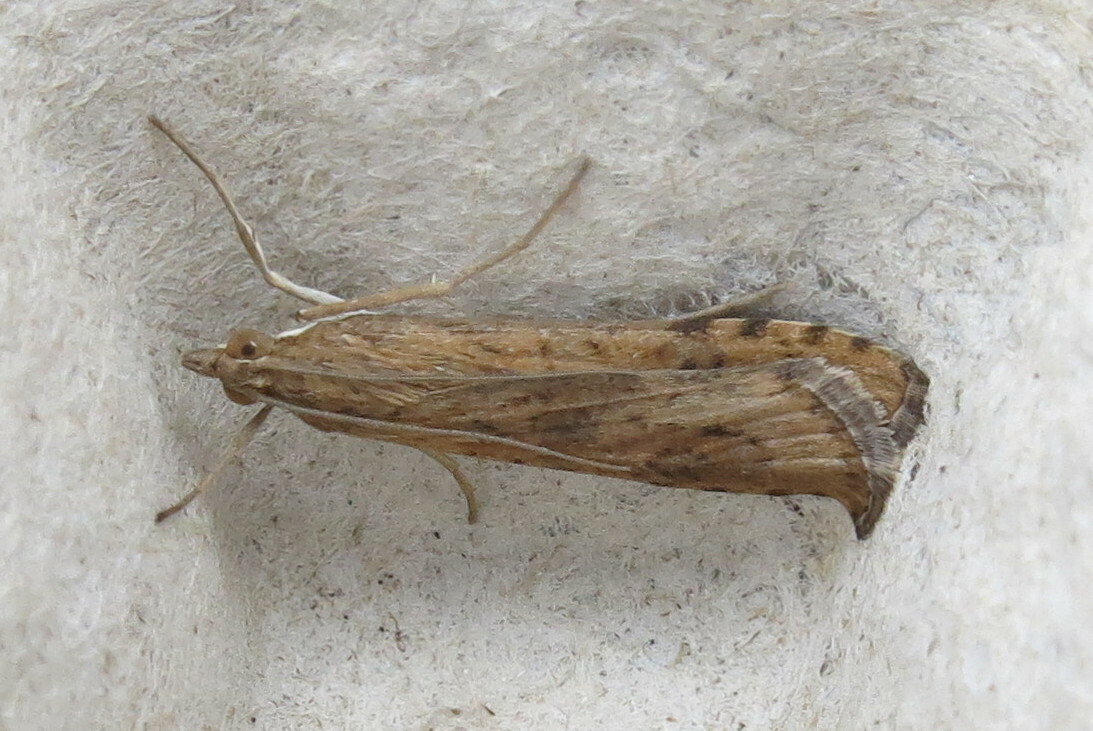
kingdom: Animalia
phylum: Arthropoda
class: Insecta
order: Lepidoptera
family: Crambidae
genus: Nomophila
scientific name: Nomophila noctuella
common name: Rush veneer
